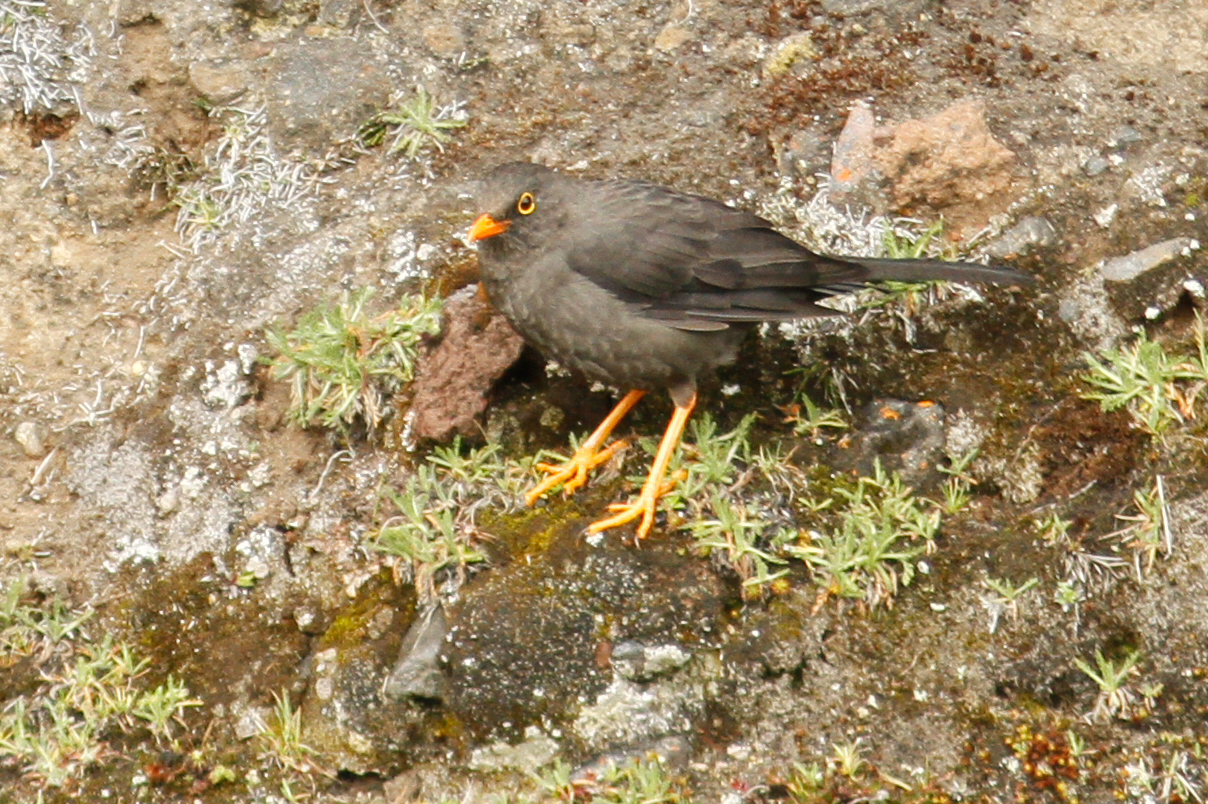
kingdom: Animalia
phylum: Chordata
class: Aves
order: Passeriformes
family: Turdidae
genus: Turdus
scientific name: Turdus fuscater
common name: Great thrush
